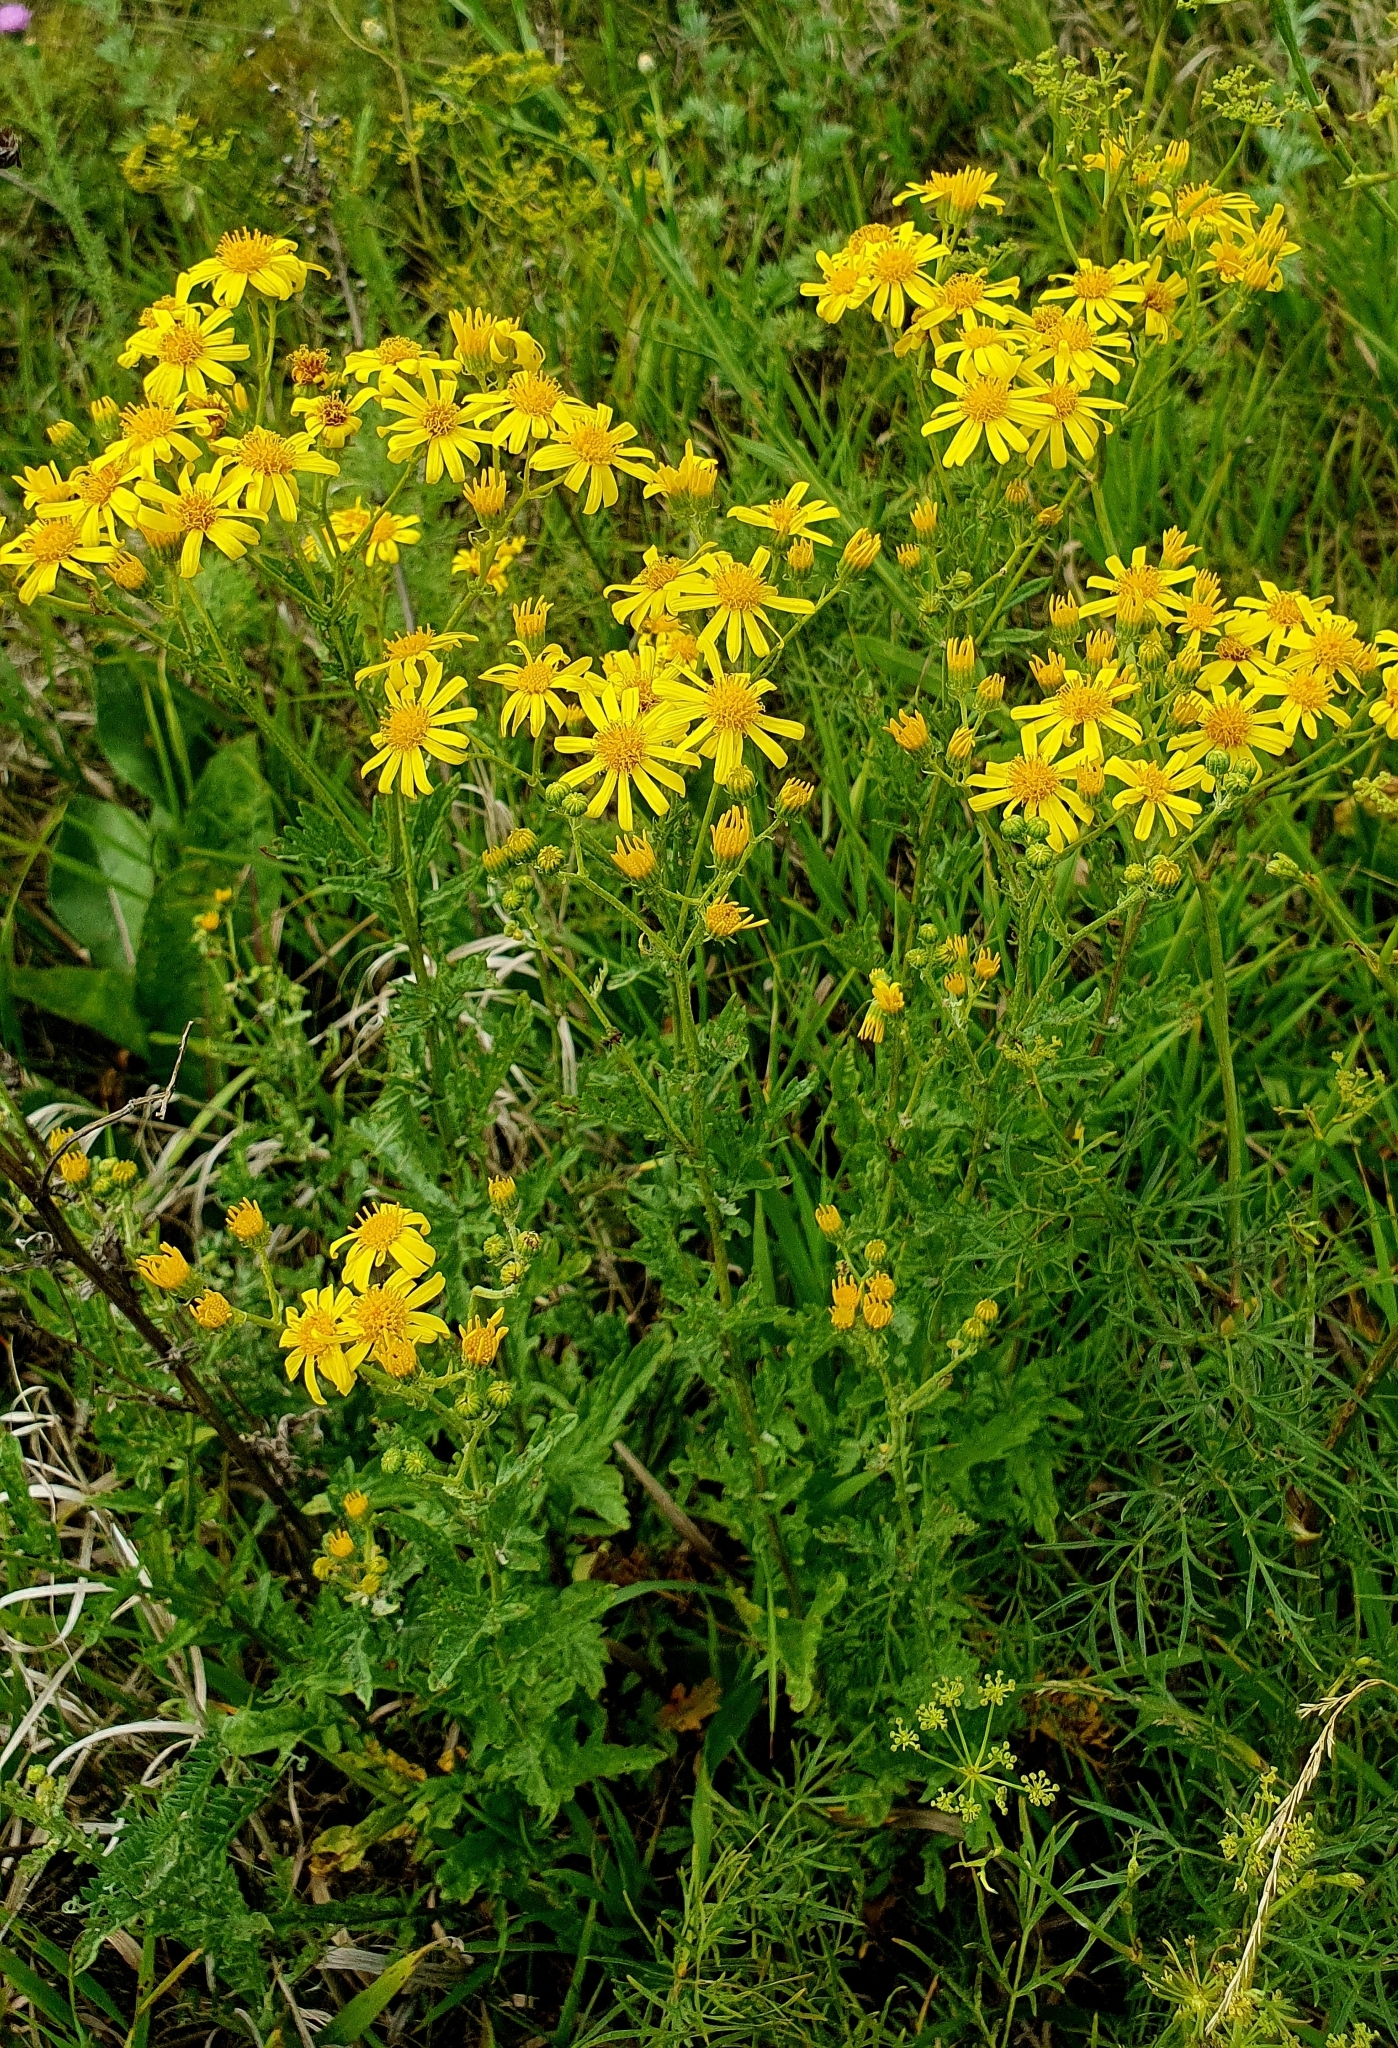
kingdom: Plantae
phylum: Tracheophyta
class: Magnoliopsida
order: Asterales
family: Asteraceae
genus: Jacobaea
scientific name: Jacobaea vulgaris
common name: Stinking willie
